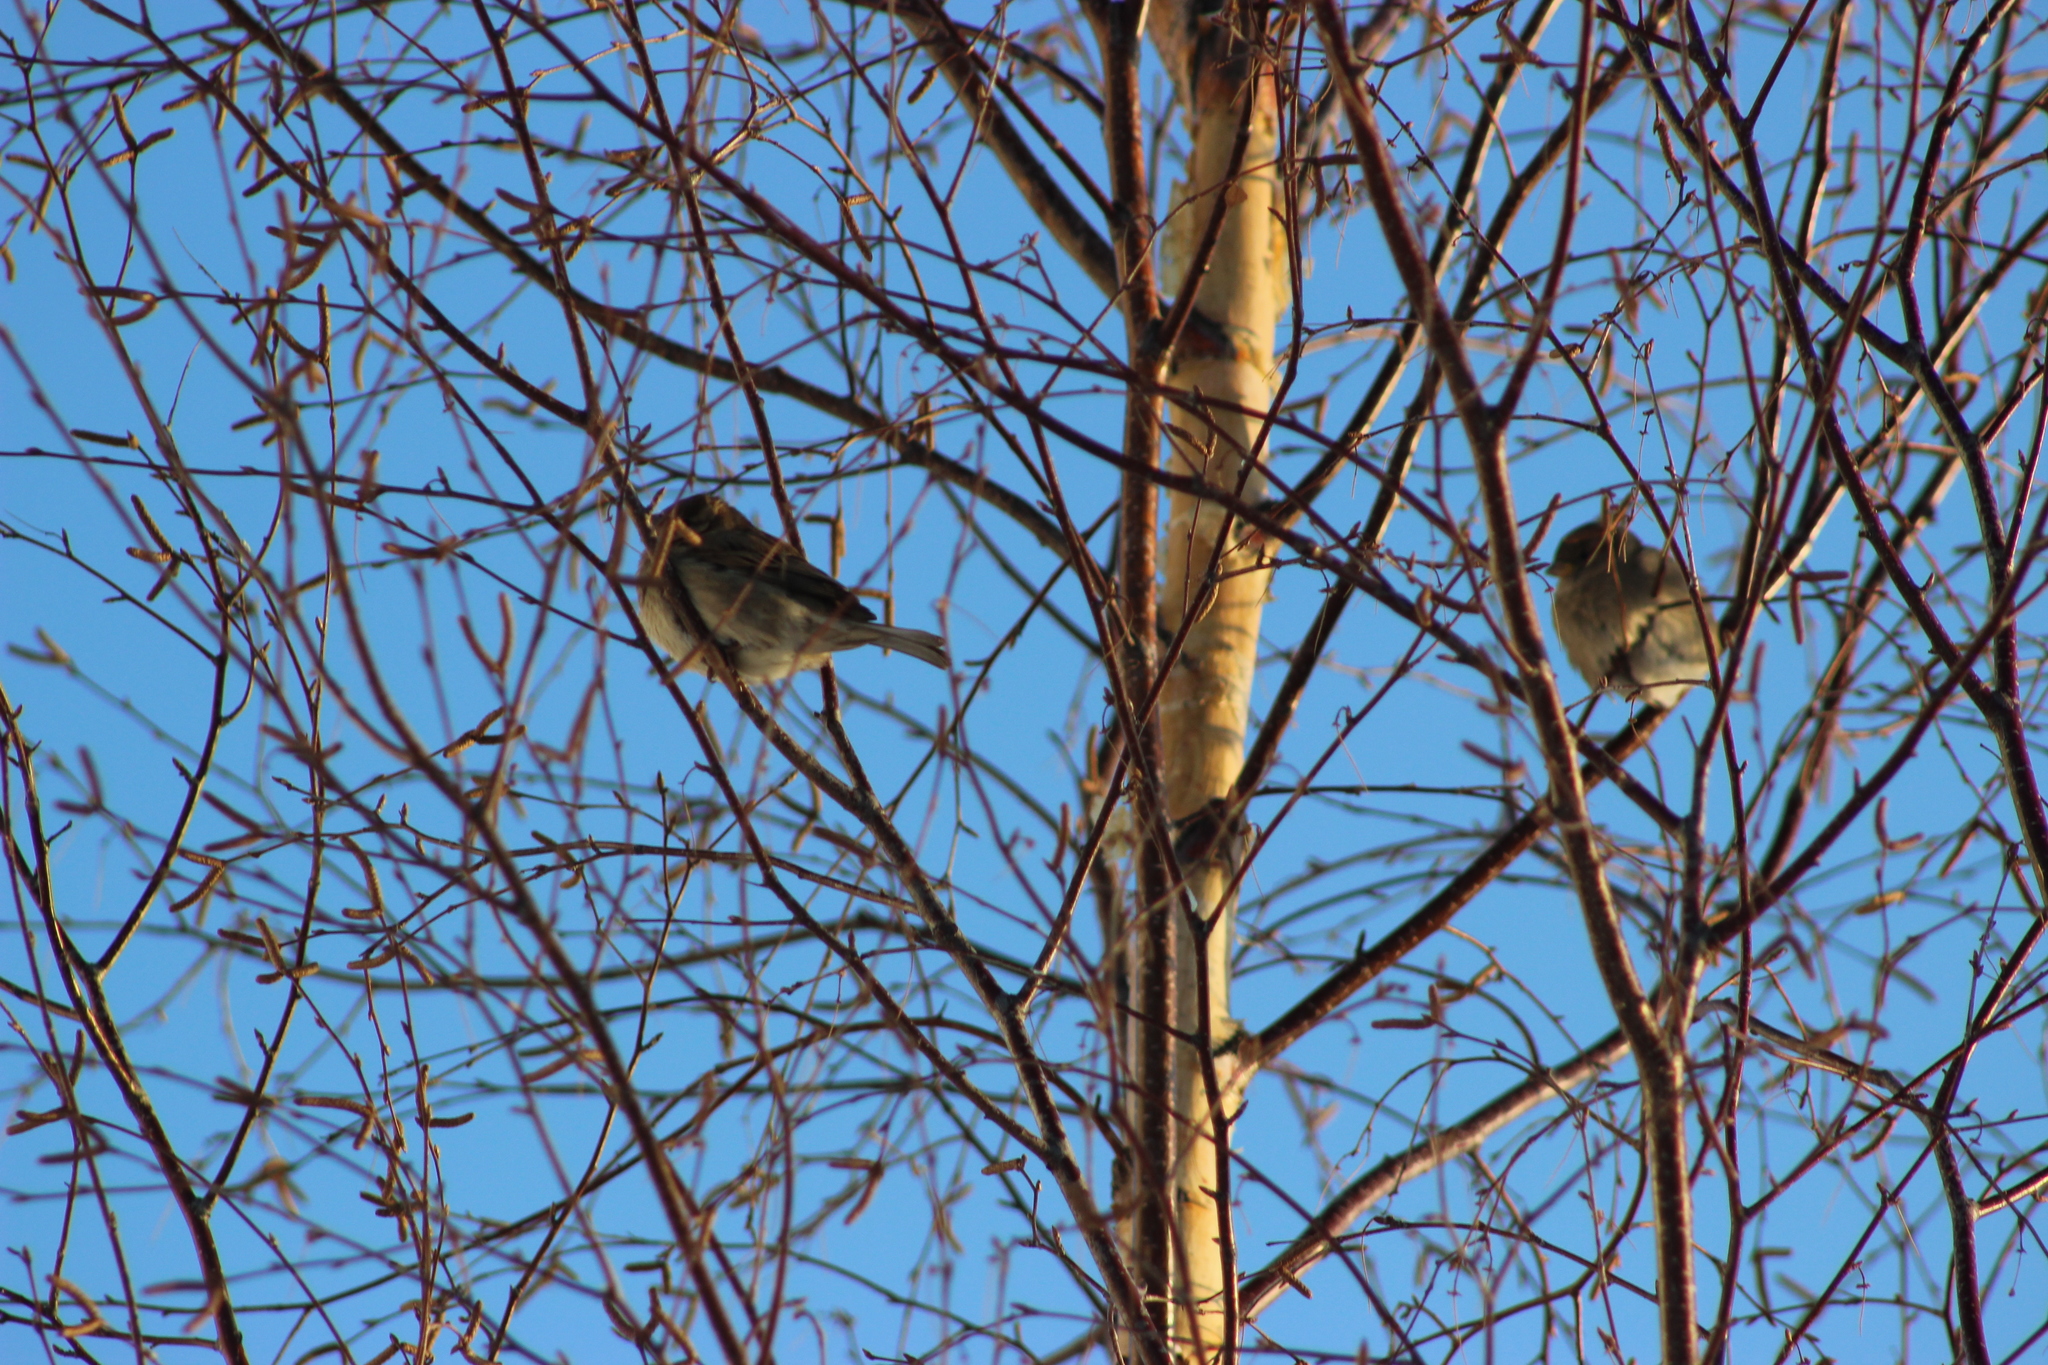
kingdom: Animalia
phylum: Chordata
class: Aves
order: Passeriformes
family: Passeridae
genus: Passer
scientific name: Passer domesticus
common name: House sparrow
